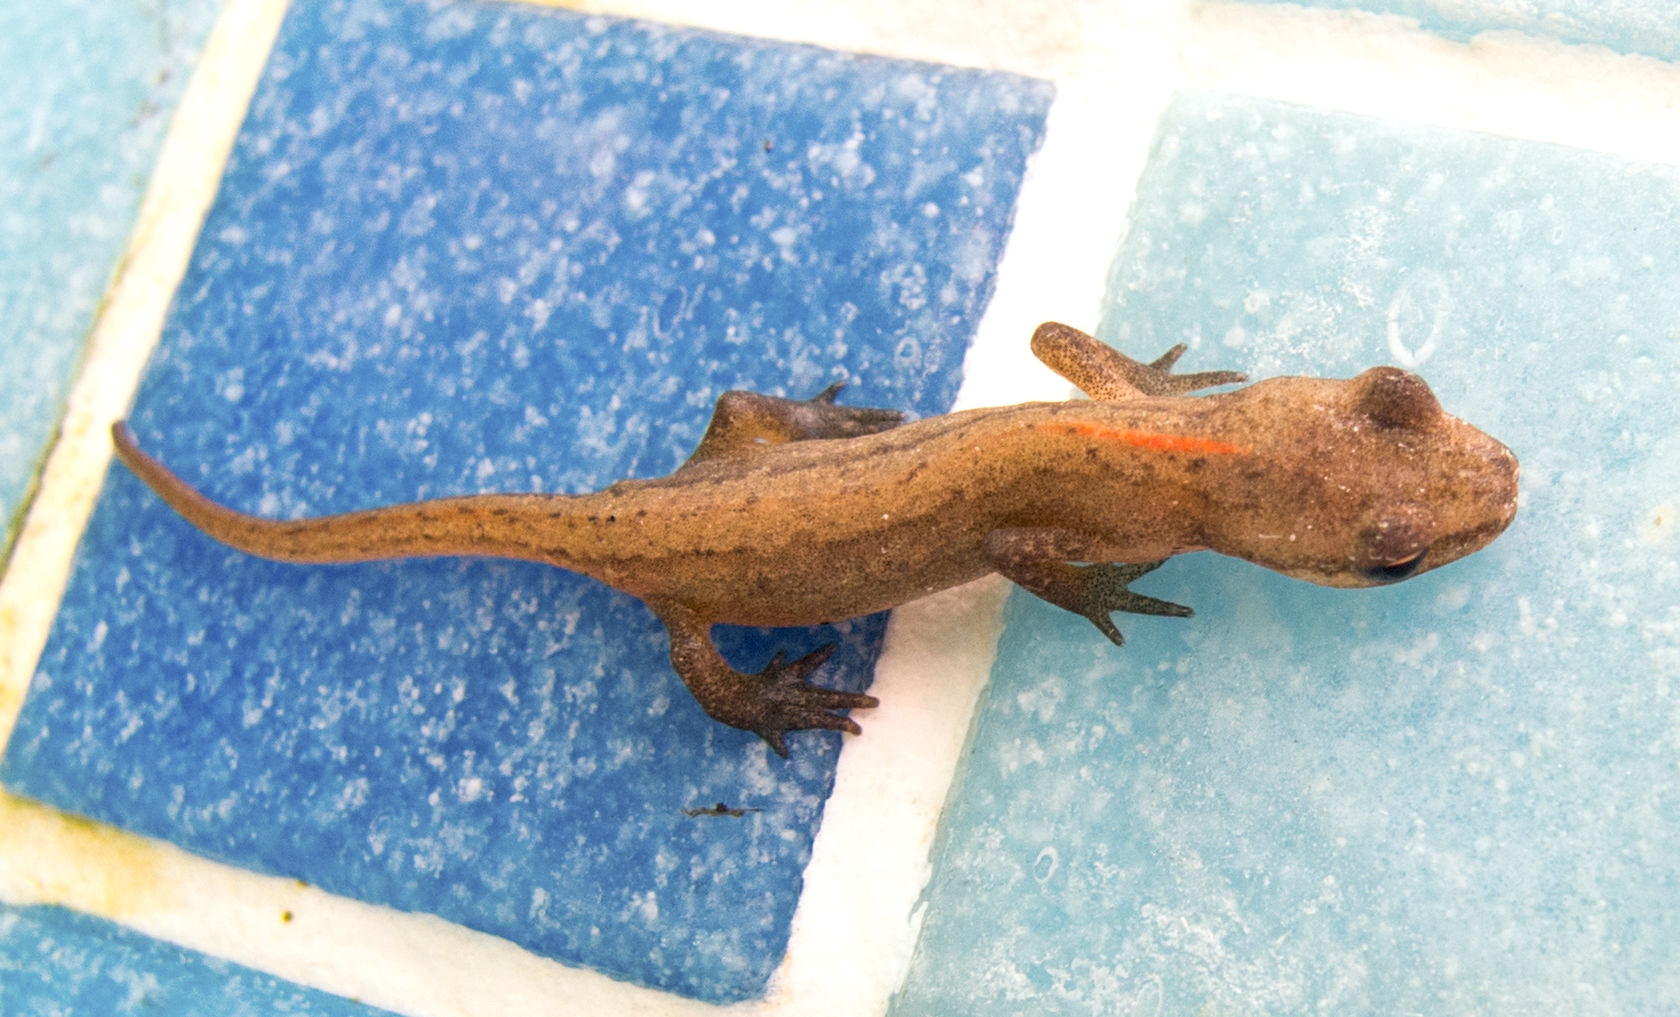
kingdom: Animalia
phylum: Chordata
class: Amphibia
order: Caudata
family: Salamandridae
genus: Lissotriton
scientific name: Lissotriton schmidtleri
